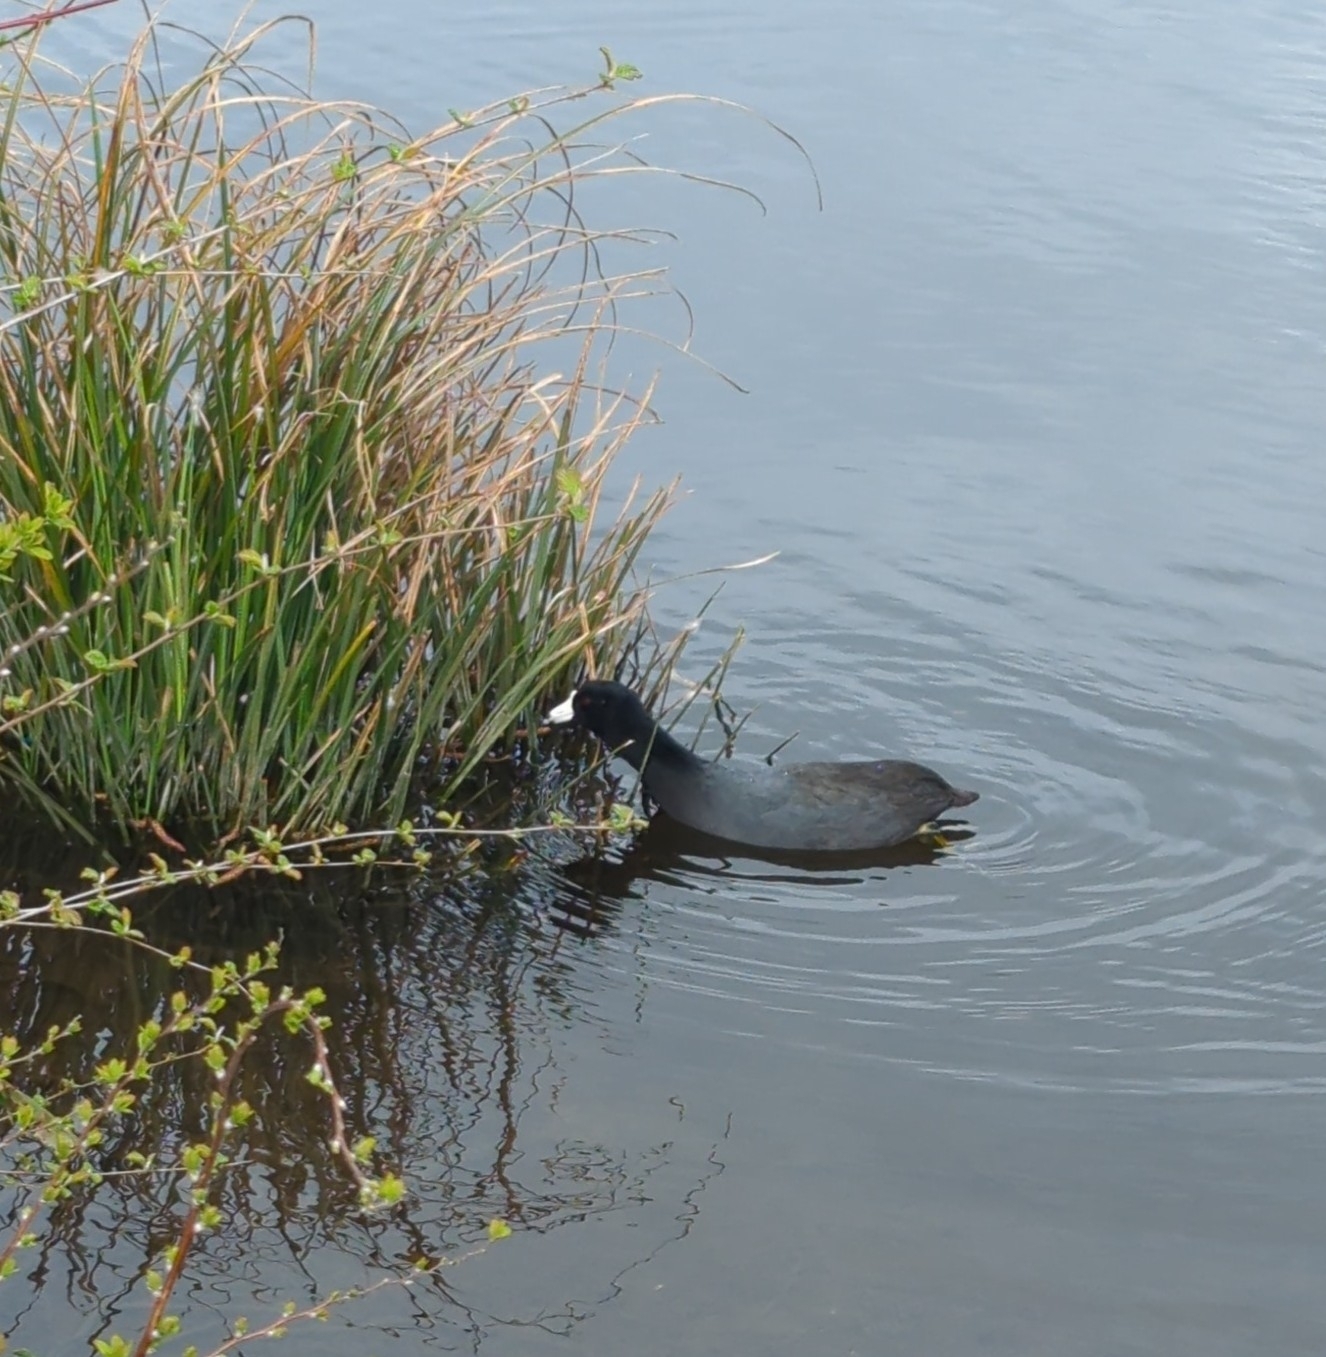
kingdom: Animalia
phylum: Chordata
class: Aves
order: Gruiformes
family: Rallidae
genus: Fulica
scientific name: Fulica americana
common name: American coot
